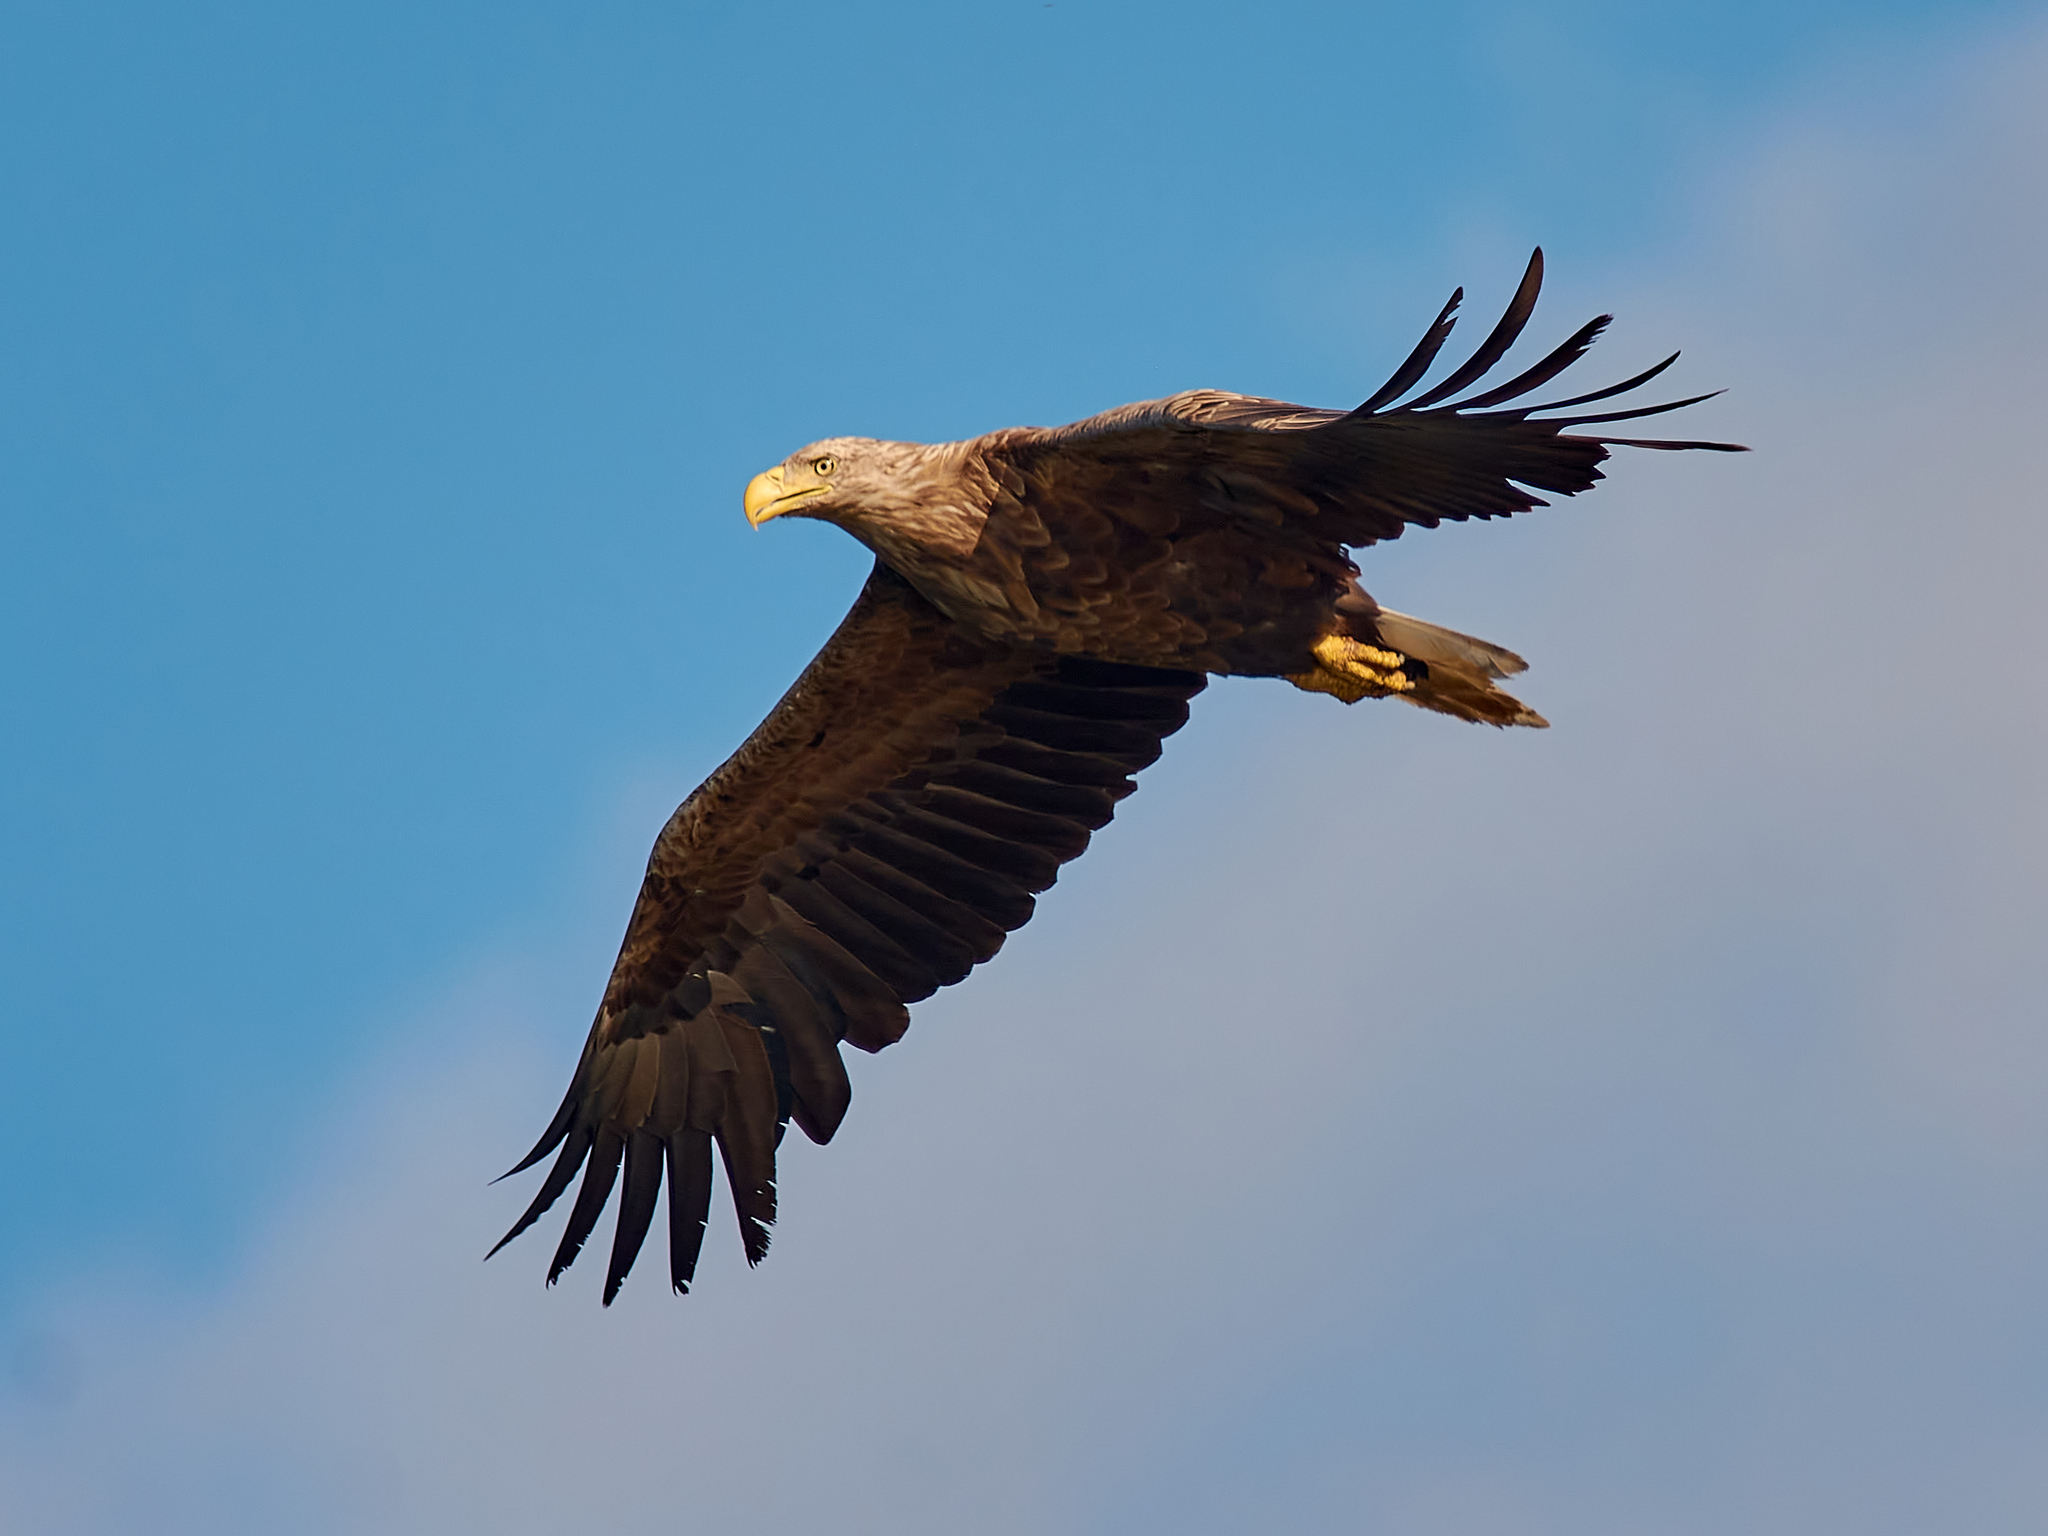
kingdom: Animalia
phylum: Chordata
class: Aves
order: Accipitriformes
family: Accipitridae
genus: Haliaeetus
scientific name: Haliaeetus albicilla
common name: White-tailed eagle
